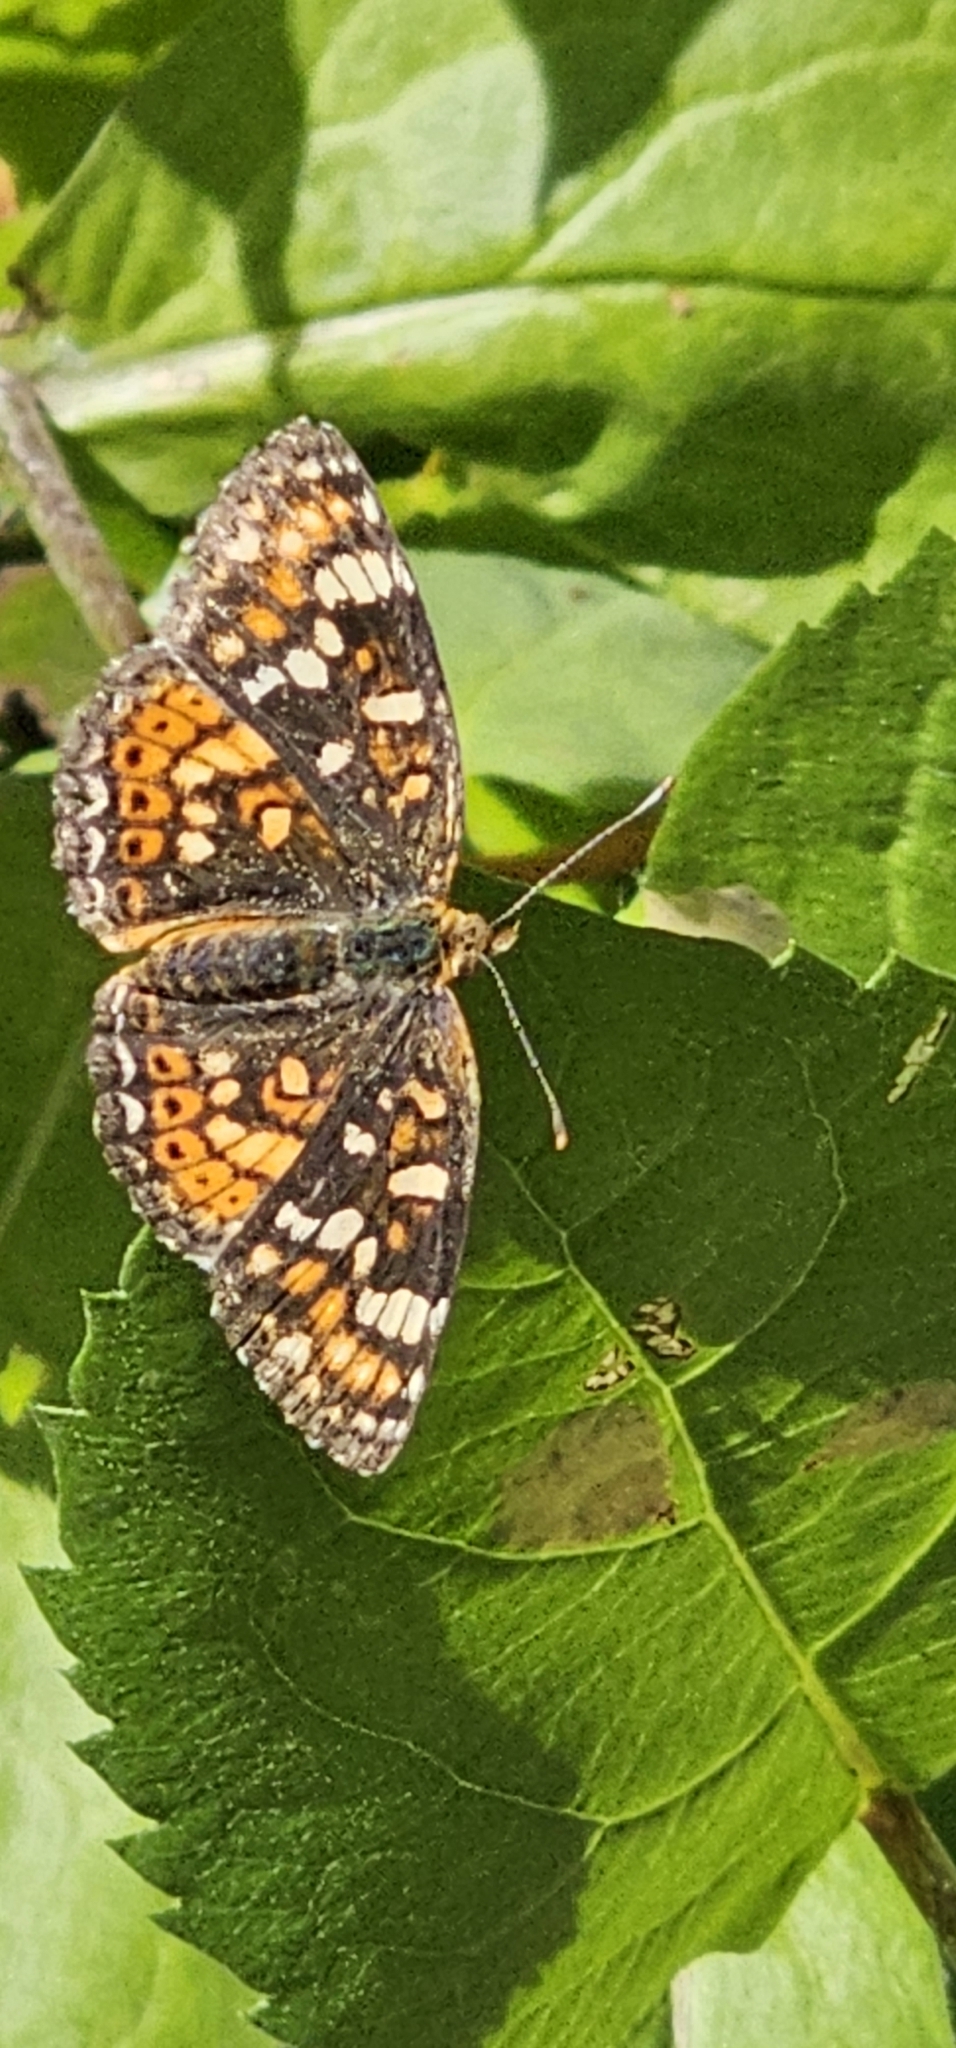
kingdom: Animalia
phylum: Arthropoda
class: Insecta
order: Lepidoptera
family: Nymphalidae
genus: Phyciodes
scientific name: Phyciodes tharos
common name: Pearl crescent
